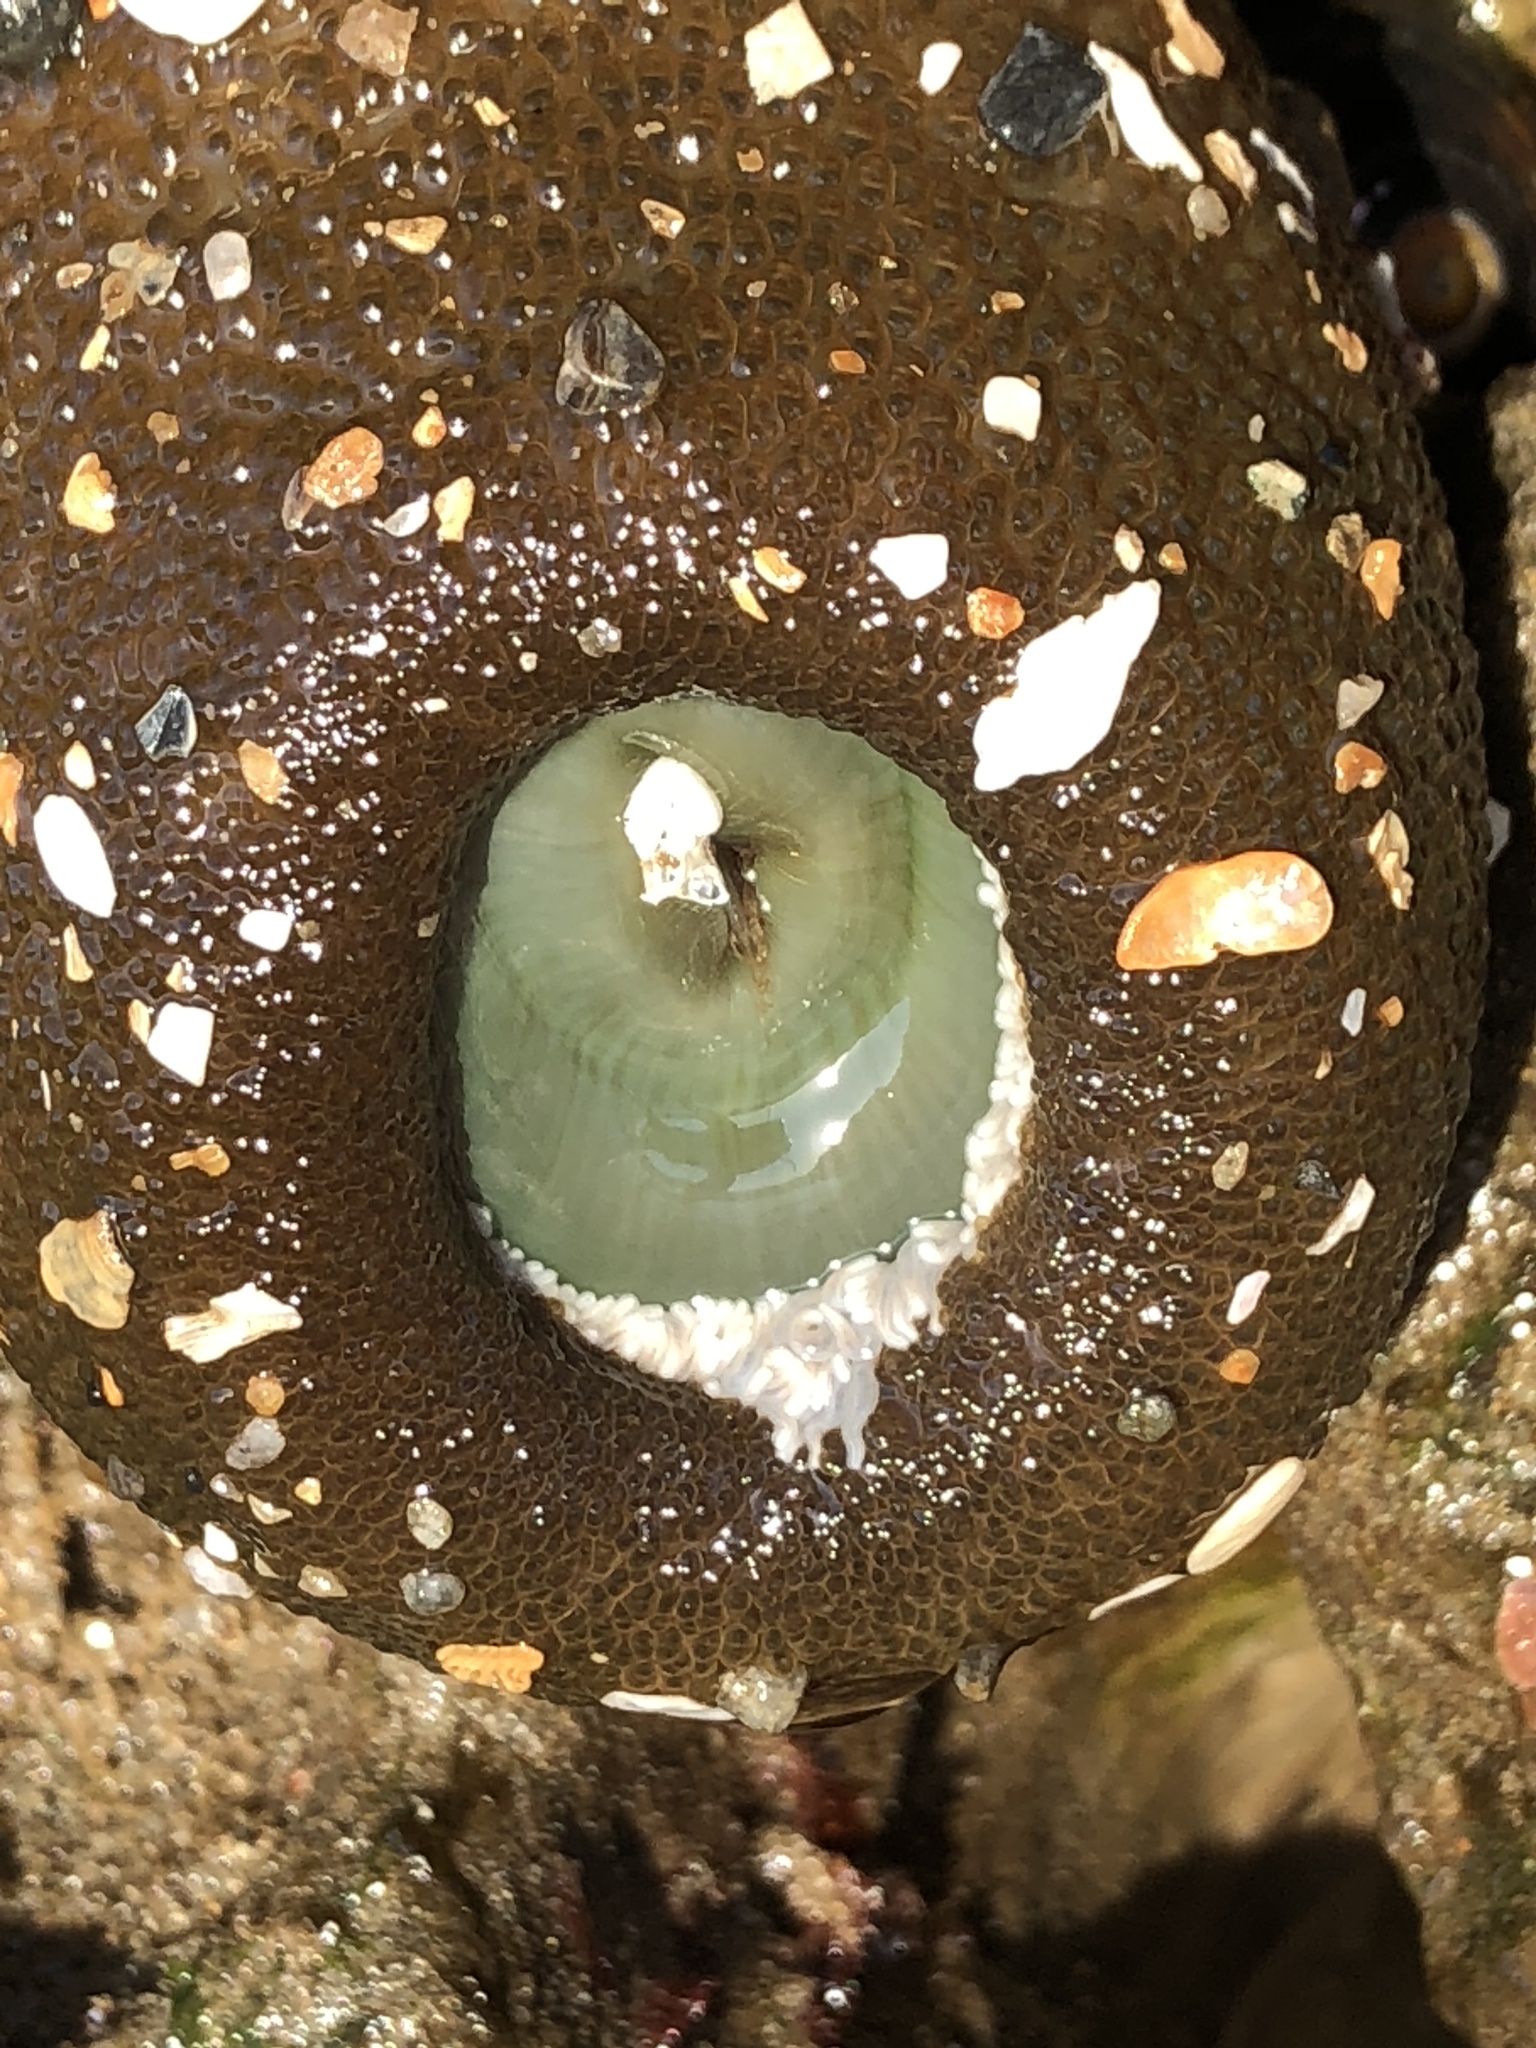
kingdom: Animalia
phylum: Cnidaria
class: Anthozoa
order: Actiniaria
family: Actiniidae
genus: Anthopleura
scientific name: Anthopleura xanthogrammica
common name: Giant green anemone
